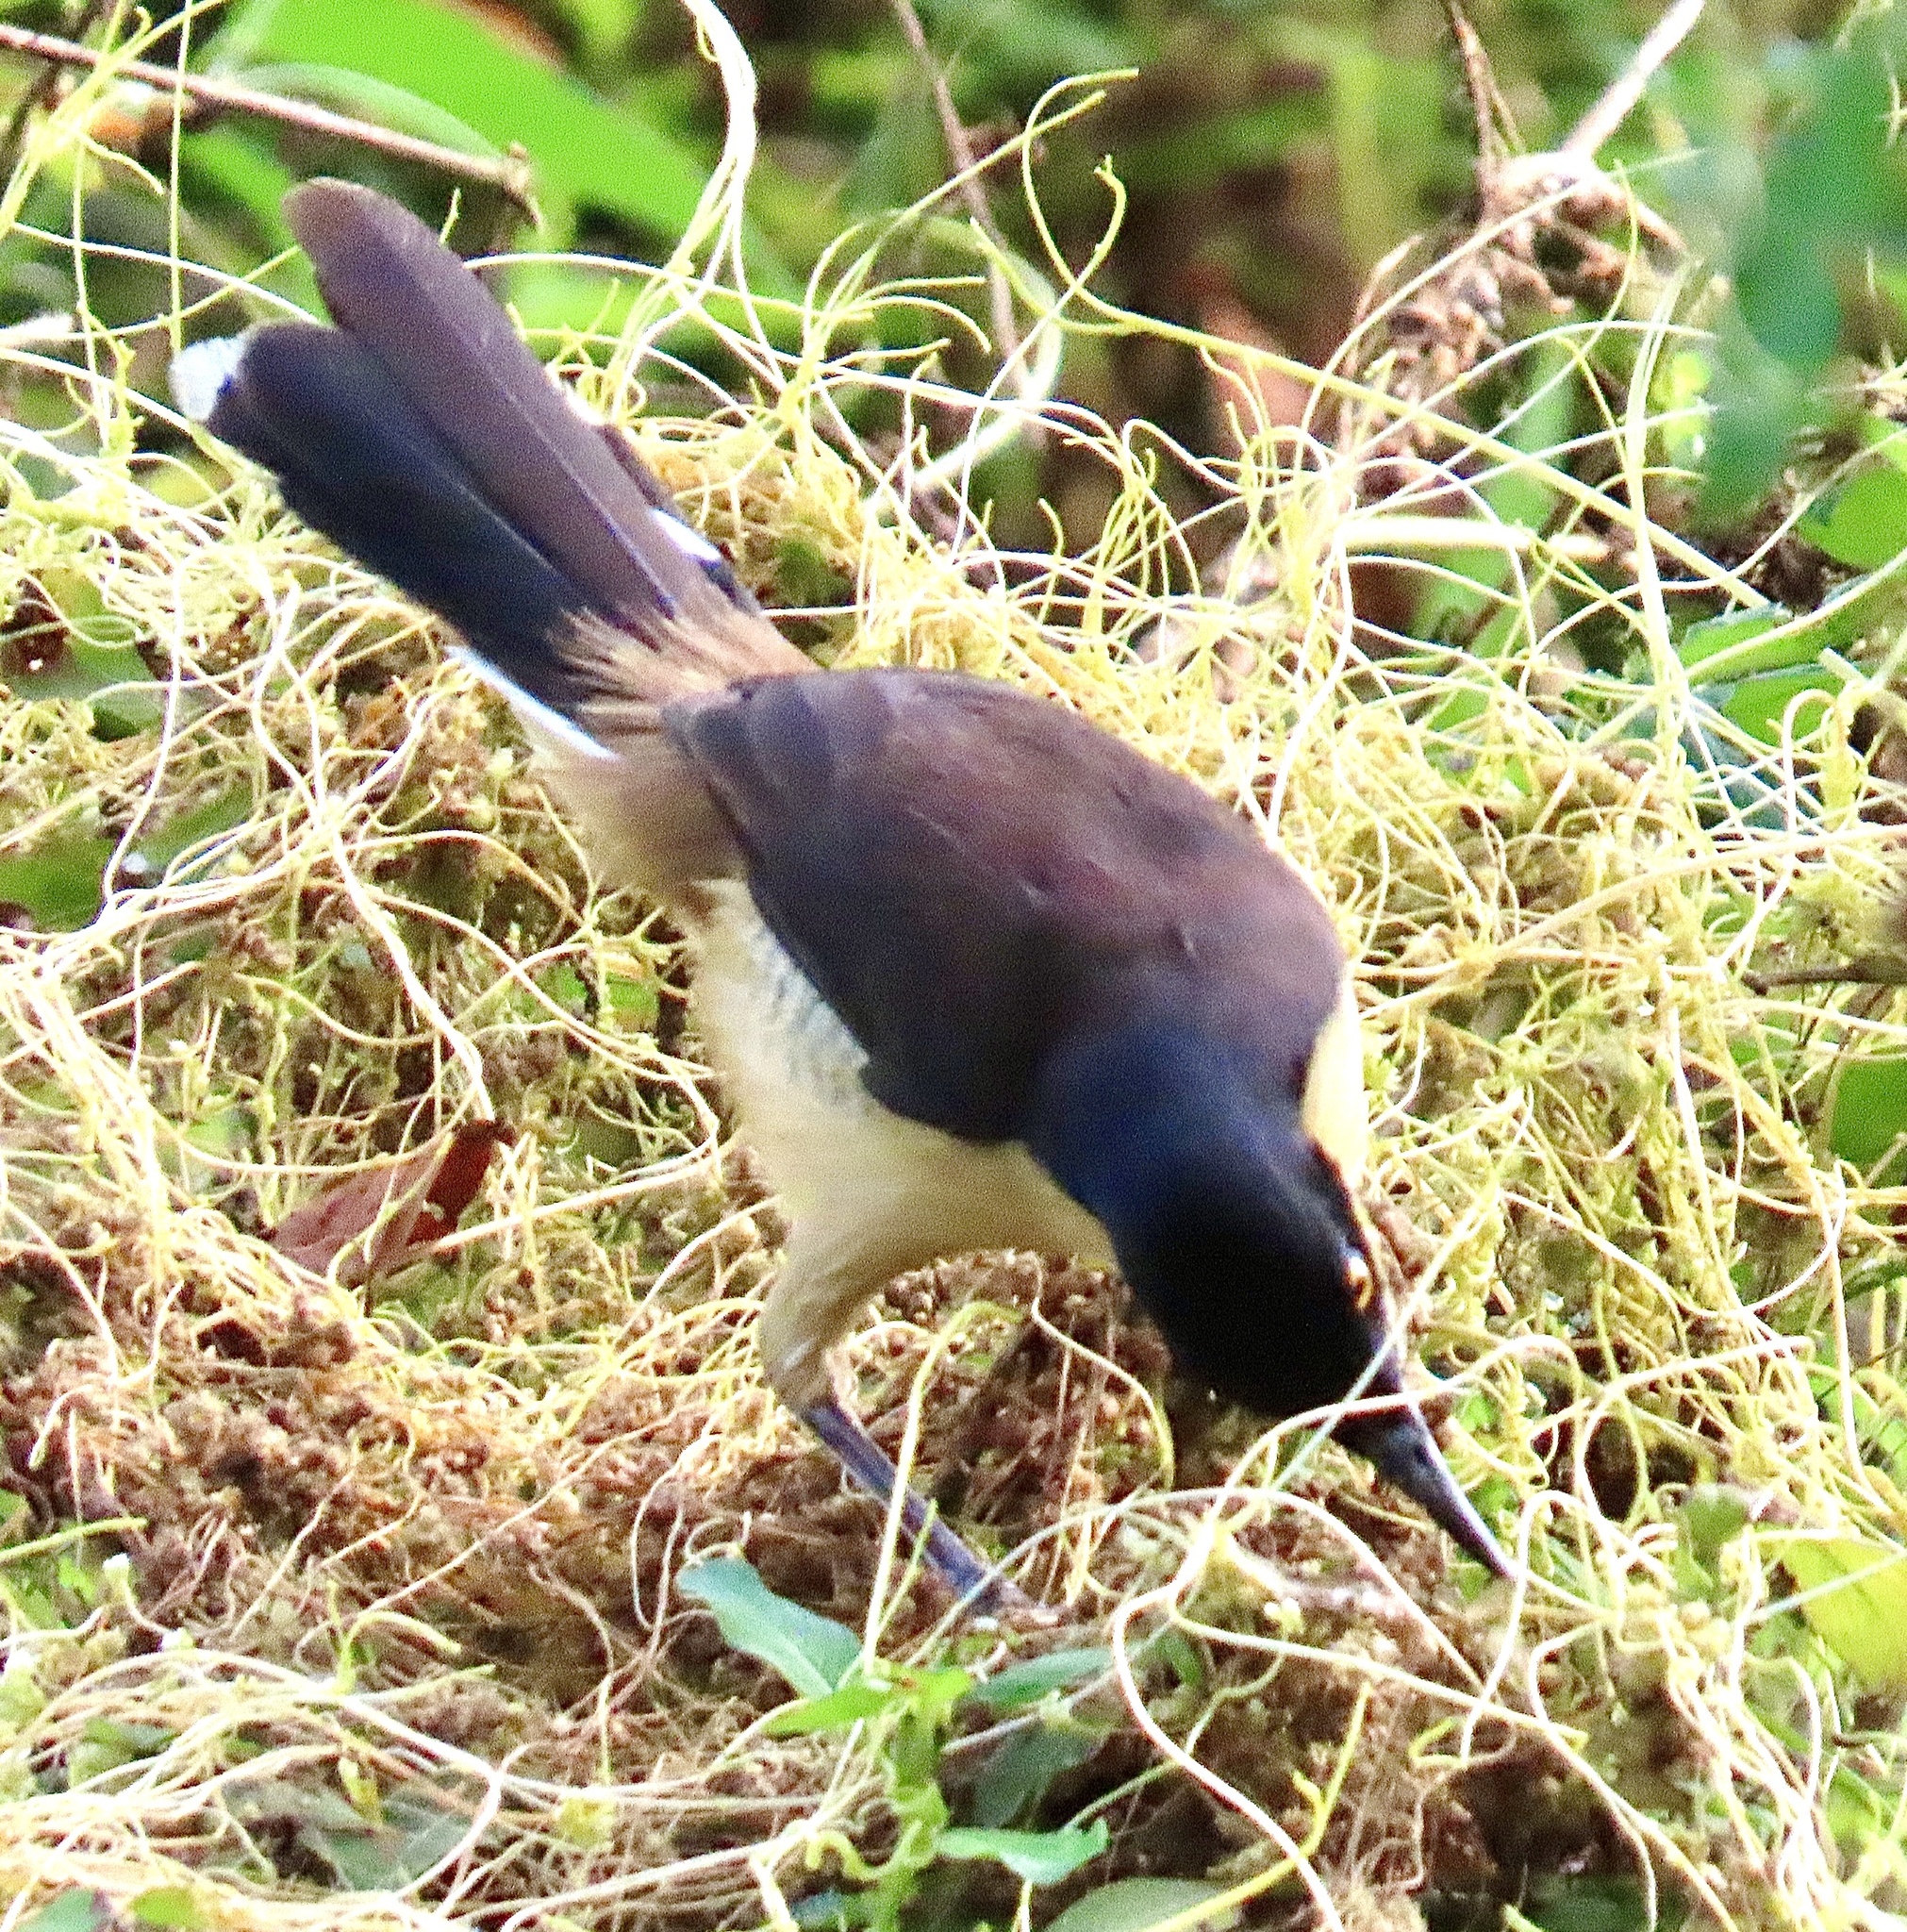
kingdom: Animalia
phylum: Chordata
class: Aves
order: Passeriformes
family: Donacobiidae
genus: Donacobius
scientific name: Donacobius atricapilla
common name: Black-capped donacobius
